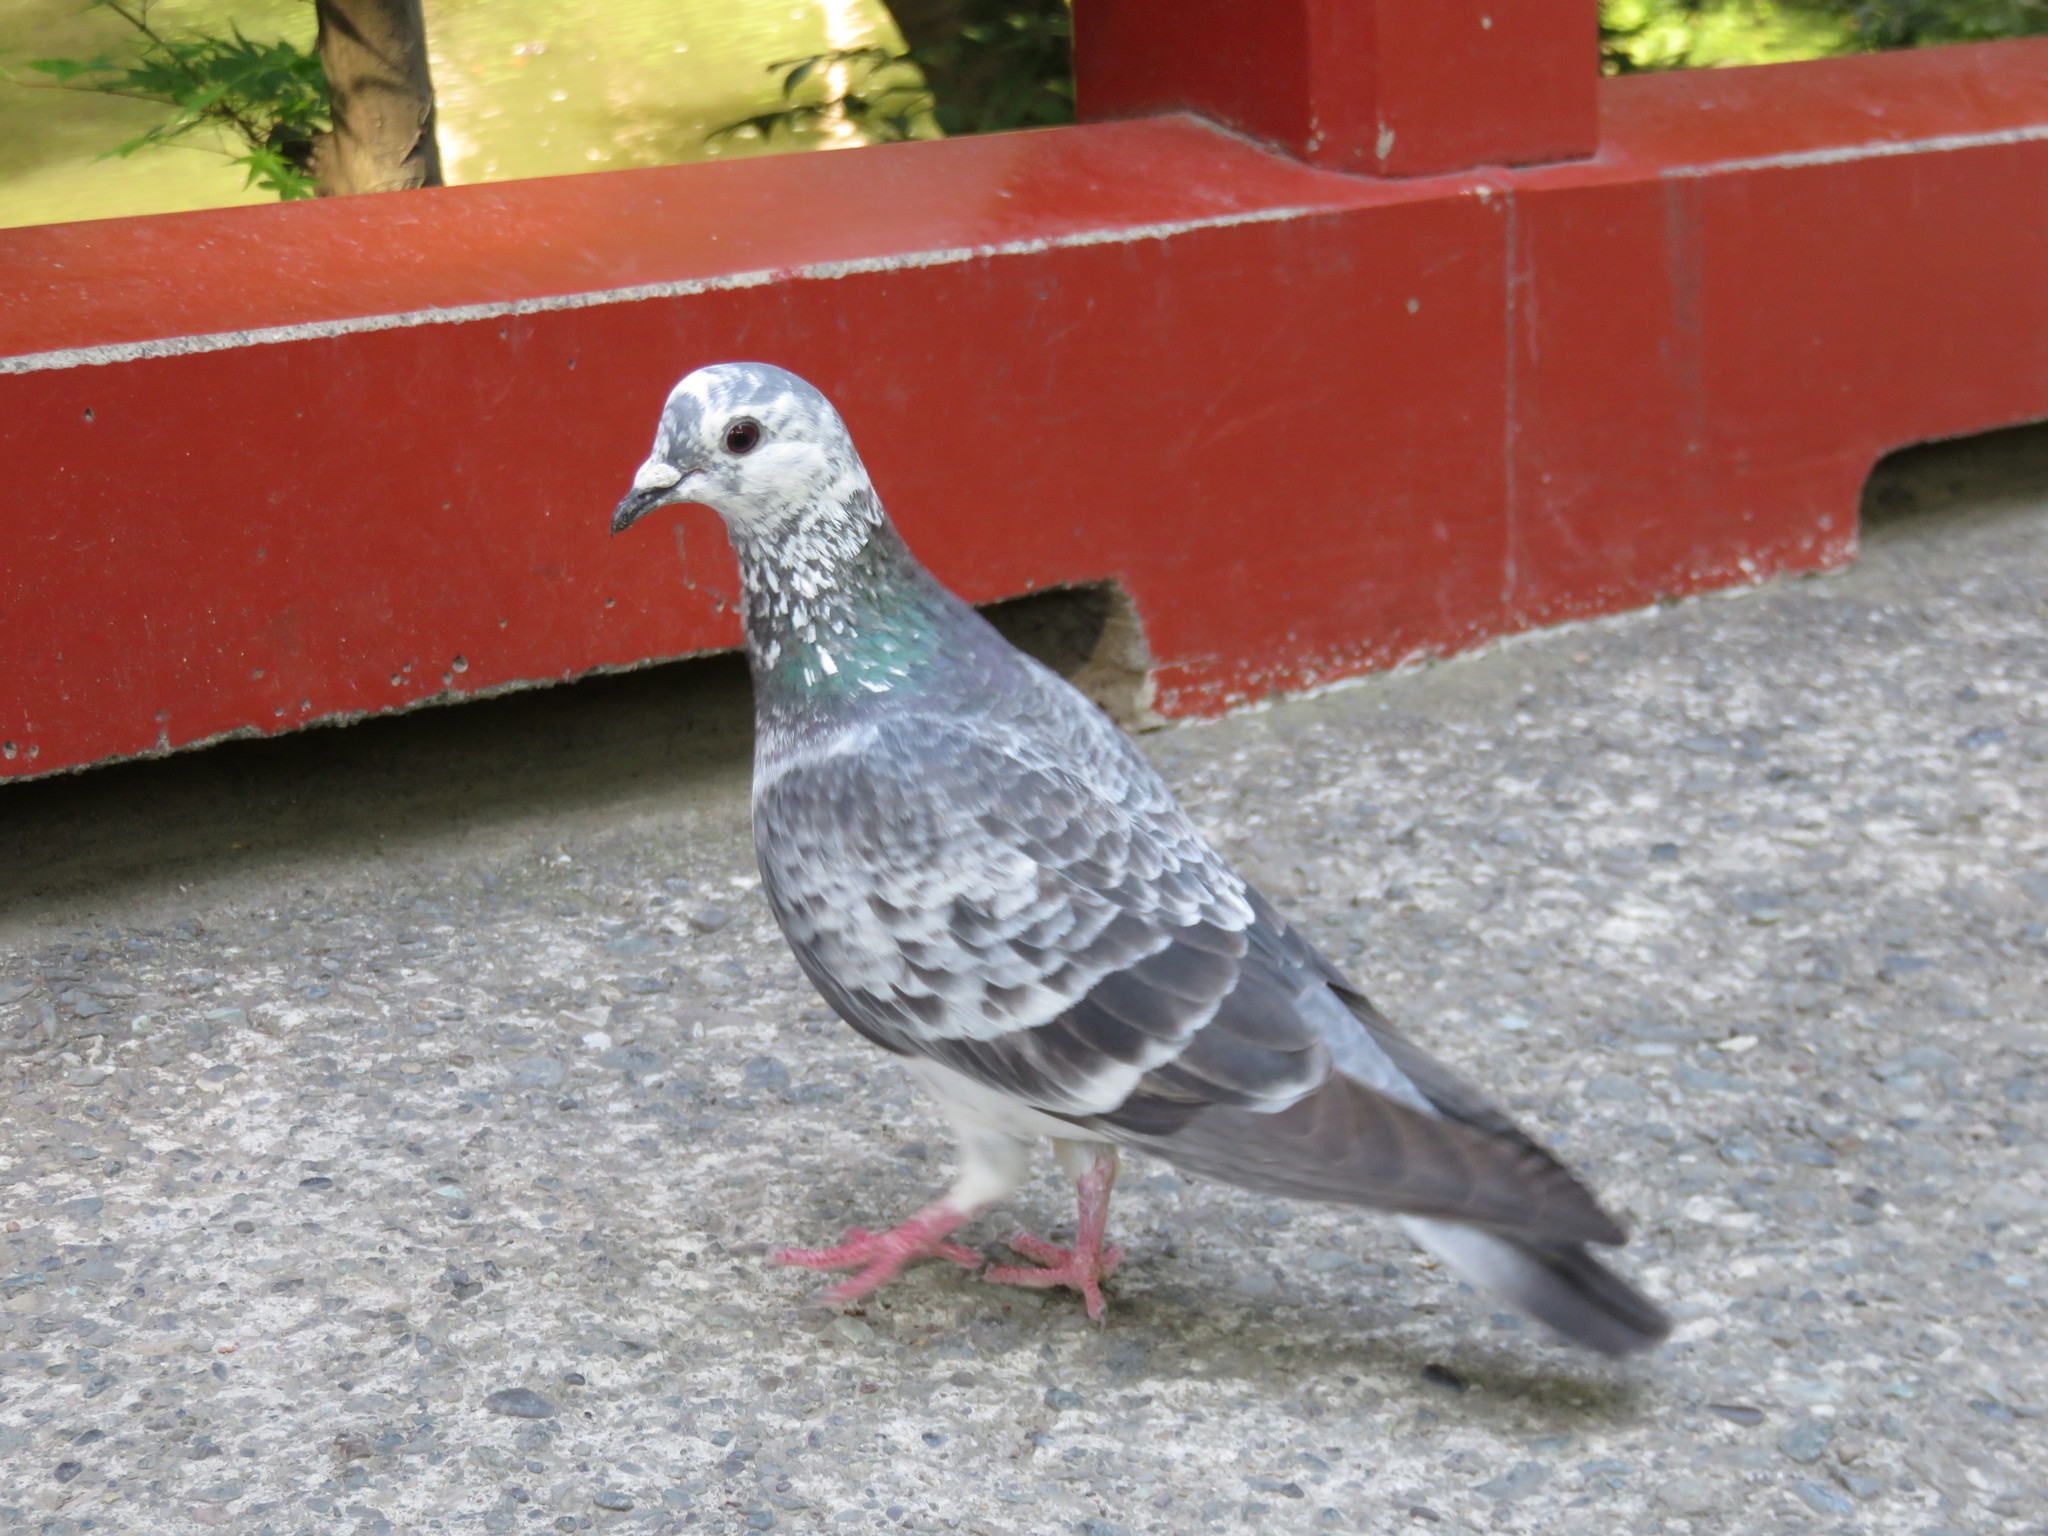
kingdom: Animalia
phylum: Chordata
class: Aves
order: Columbiformes
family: Columbidae
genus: Columba
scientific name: Columba livia
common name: Rock pigeon
